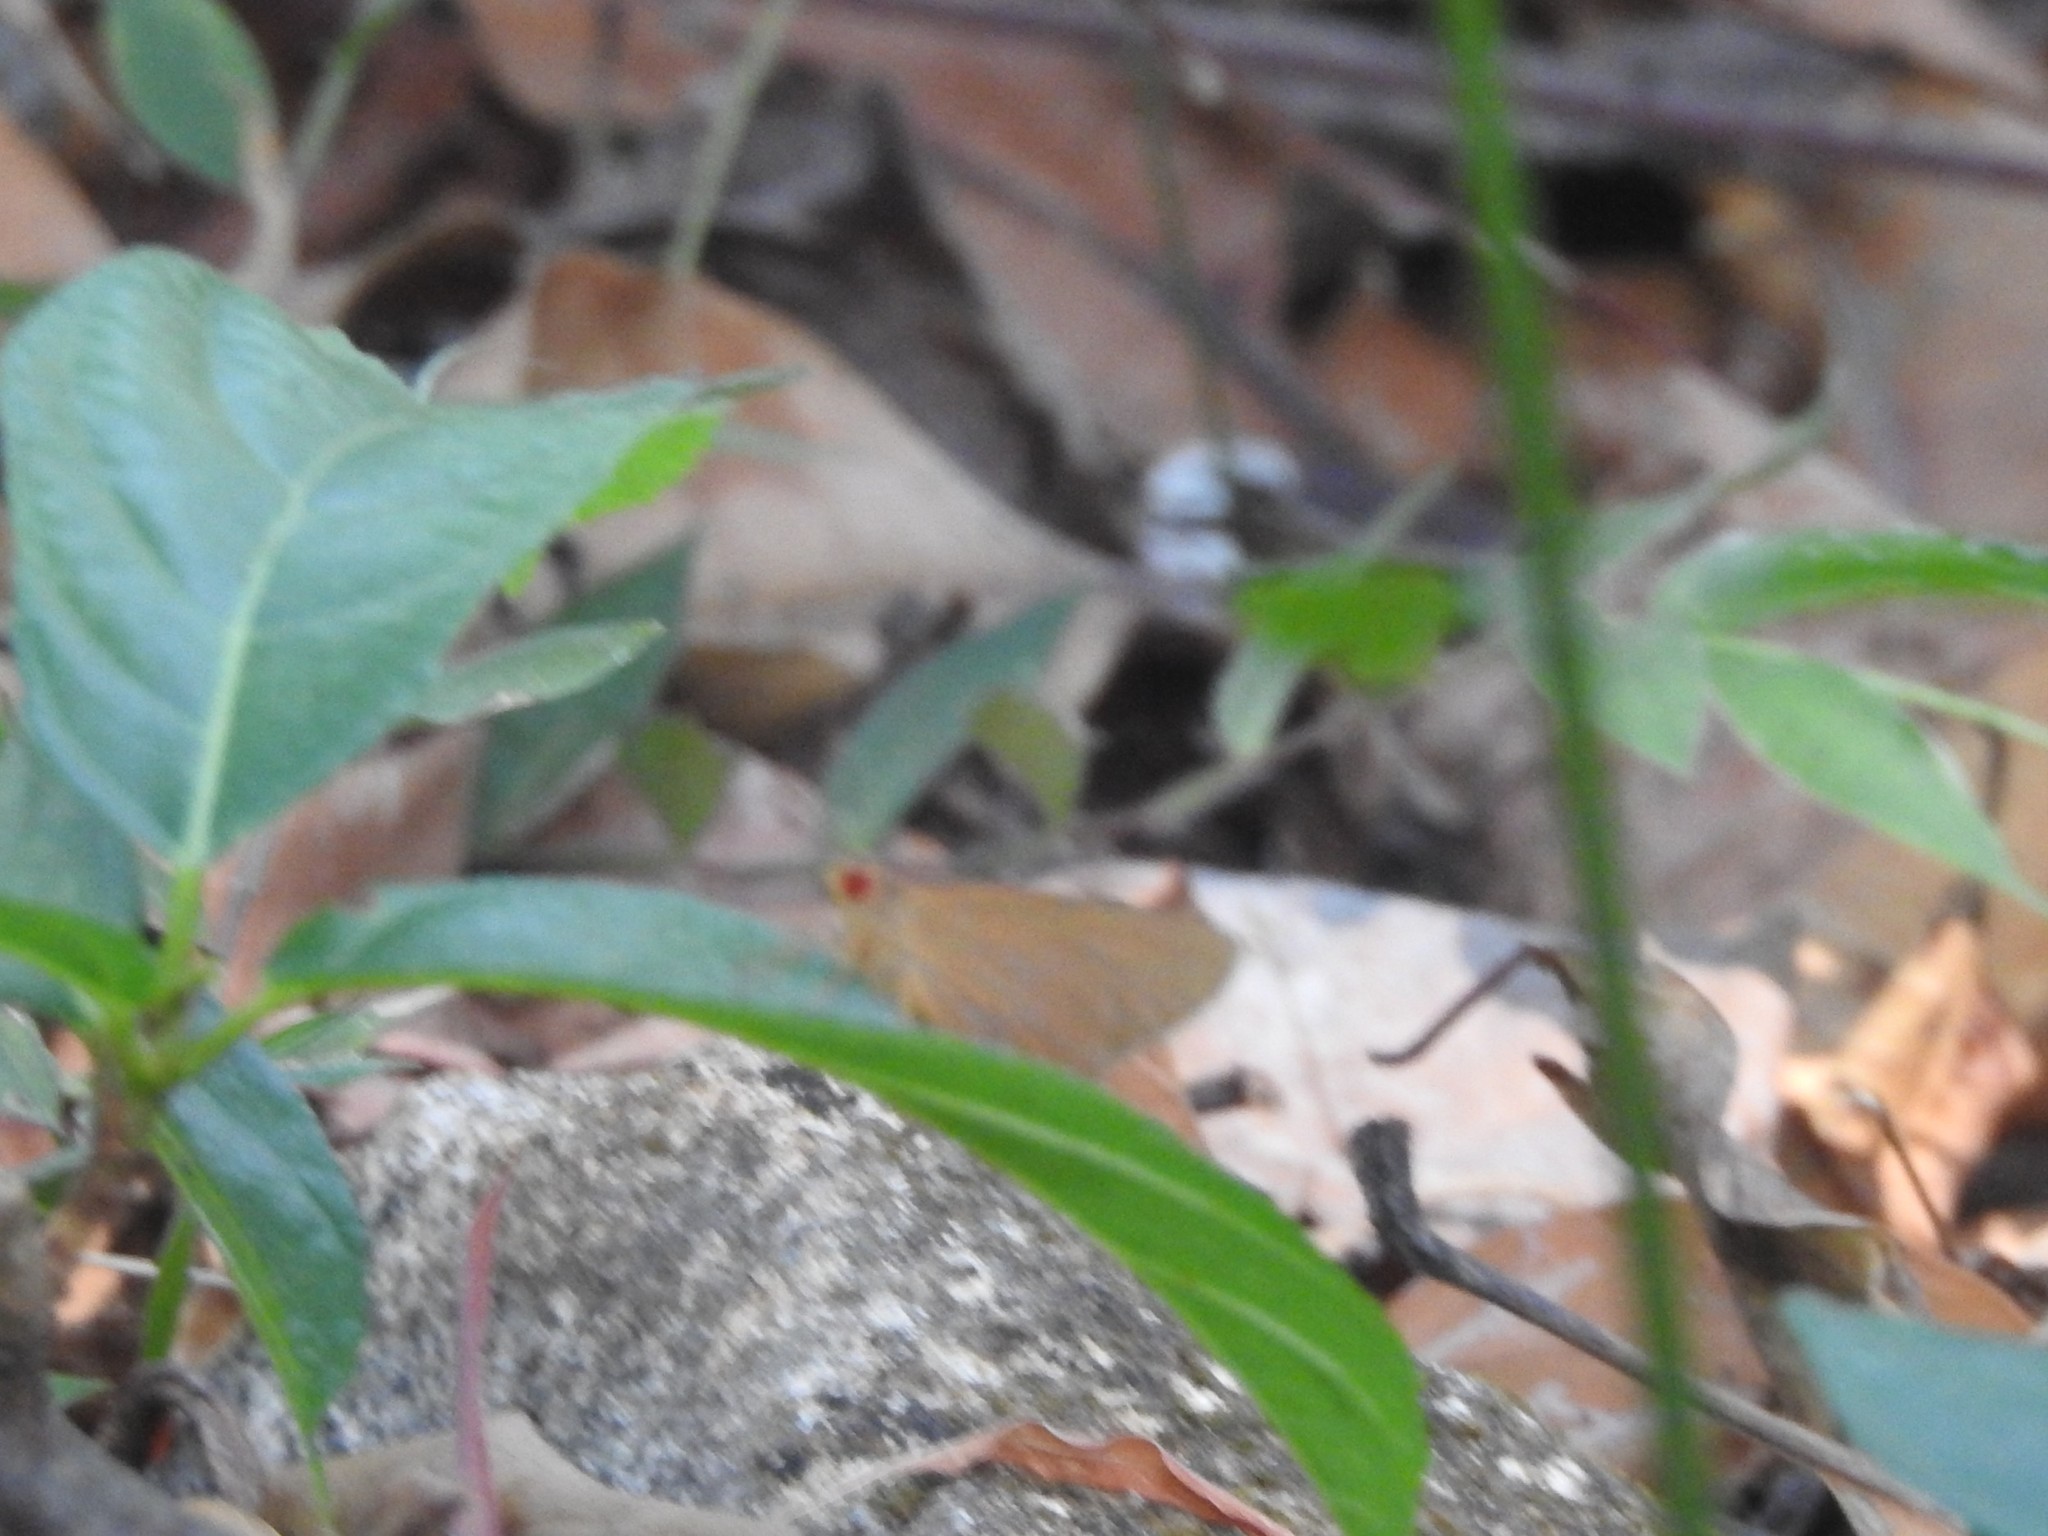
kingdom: Animalia
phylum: Arthropoda
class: Insecta
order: Lepidoptera
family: Hesperiidae
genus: Matapa
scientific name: Matapa aria
